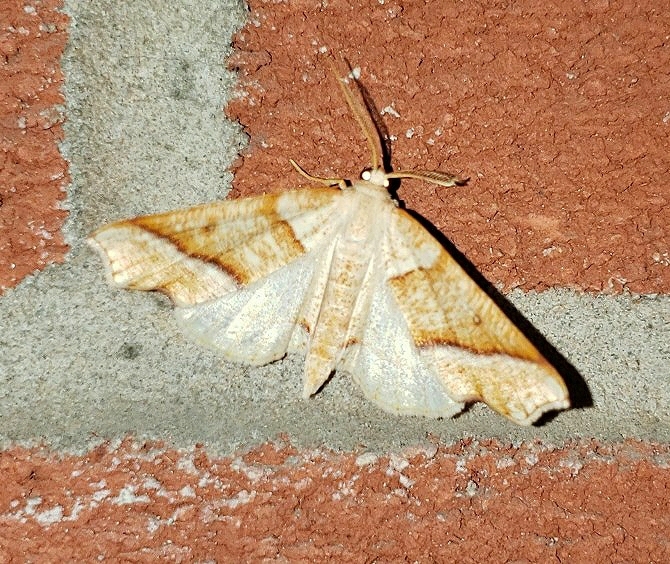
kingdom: Animalia
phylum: Arthropoda
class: Insecta
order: Lepidoptera
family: Geometridae
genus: Plagodis
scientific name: Plagodis alcoolaria
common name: Hollow-spotted plagodis
